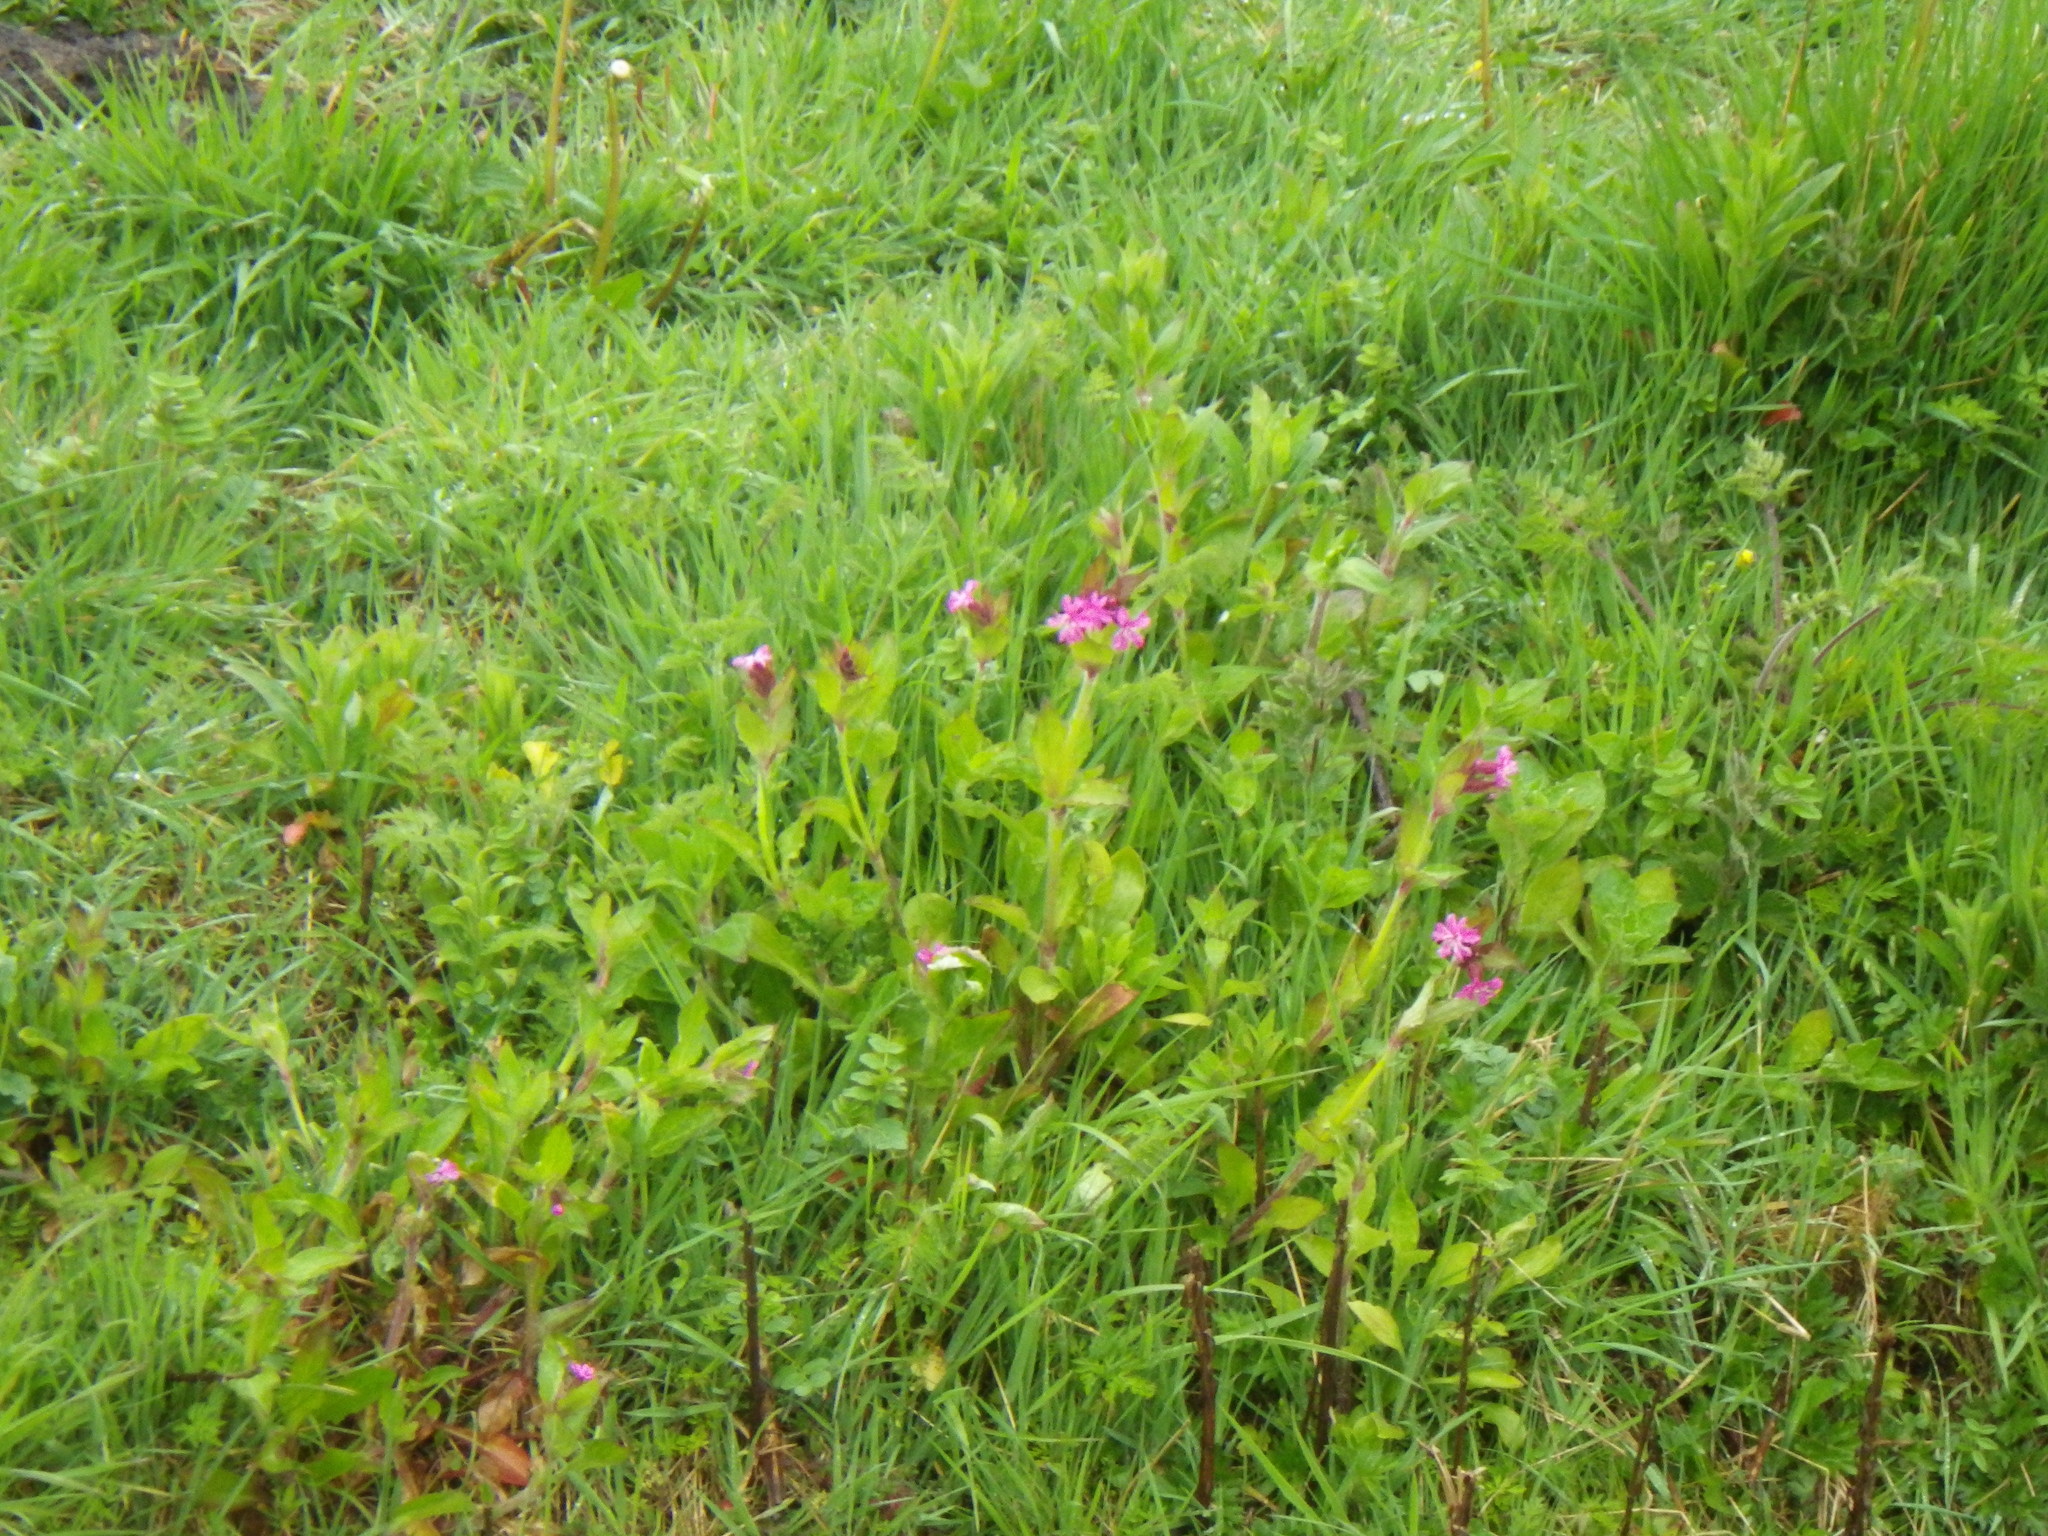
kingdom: Plantae
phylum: Tracheophyta
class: Magnoliopsida
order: Caryophyllales
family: Caryophyllaceae
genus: Silene
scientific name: Silene dioica
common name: Red campion
